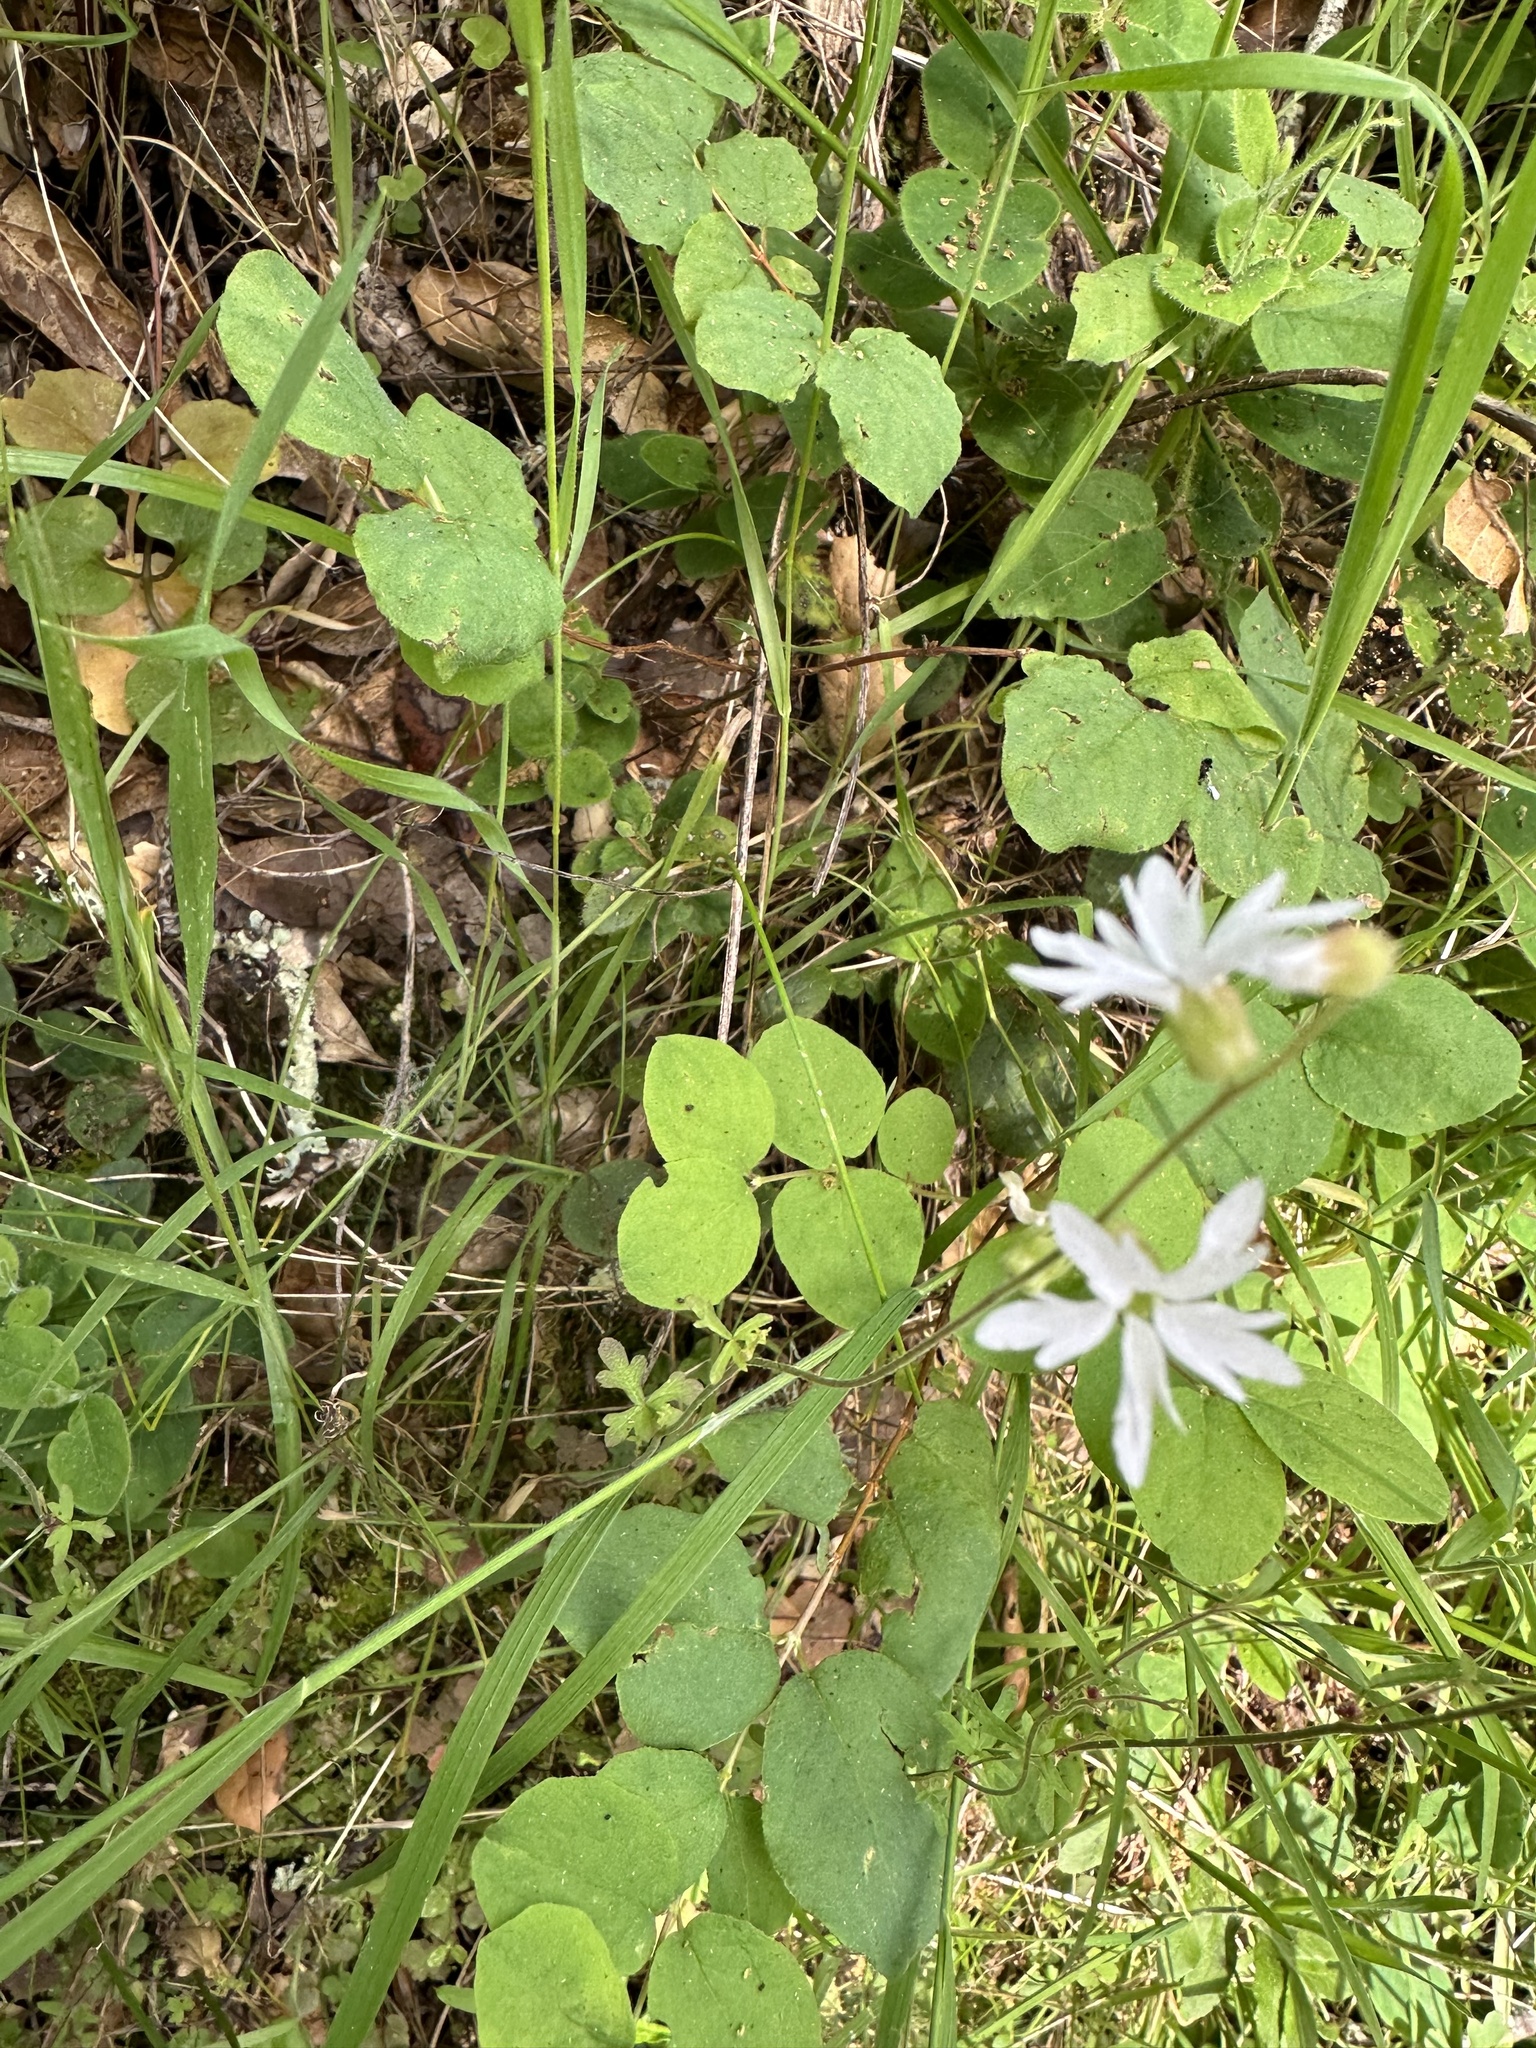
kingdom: Plantae
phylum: Tracheophyta
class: Magnoliopsida
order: Saxifragales
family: Saxifragaceae
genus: Lithophragma
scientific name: Lithophragma heterophyllum
